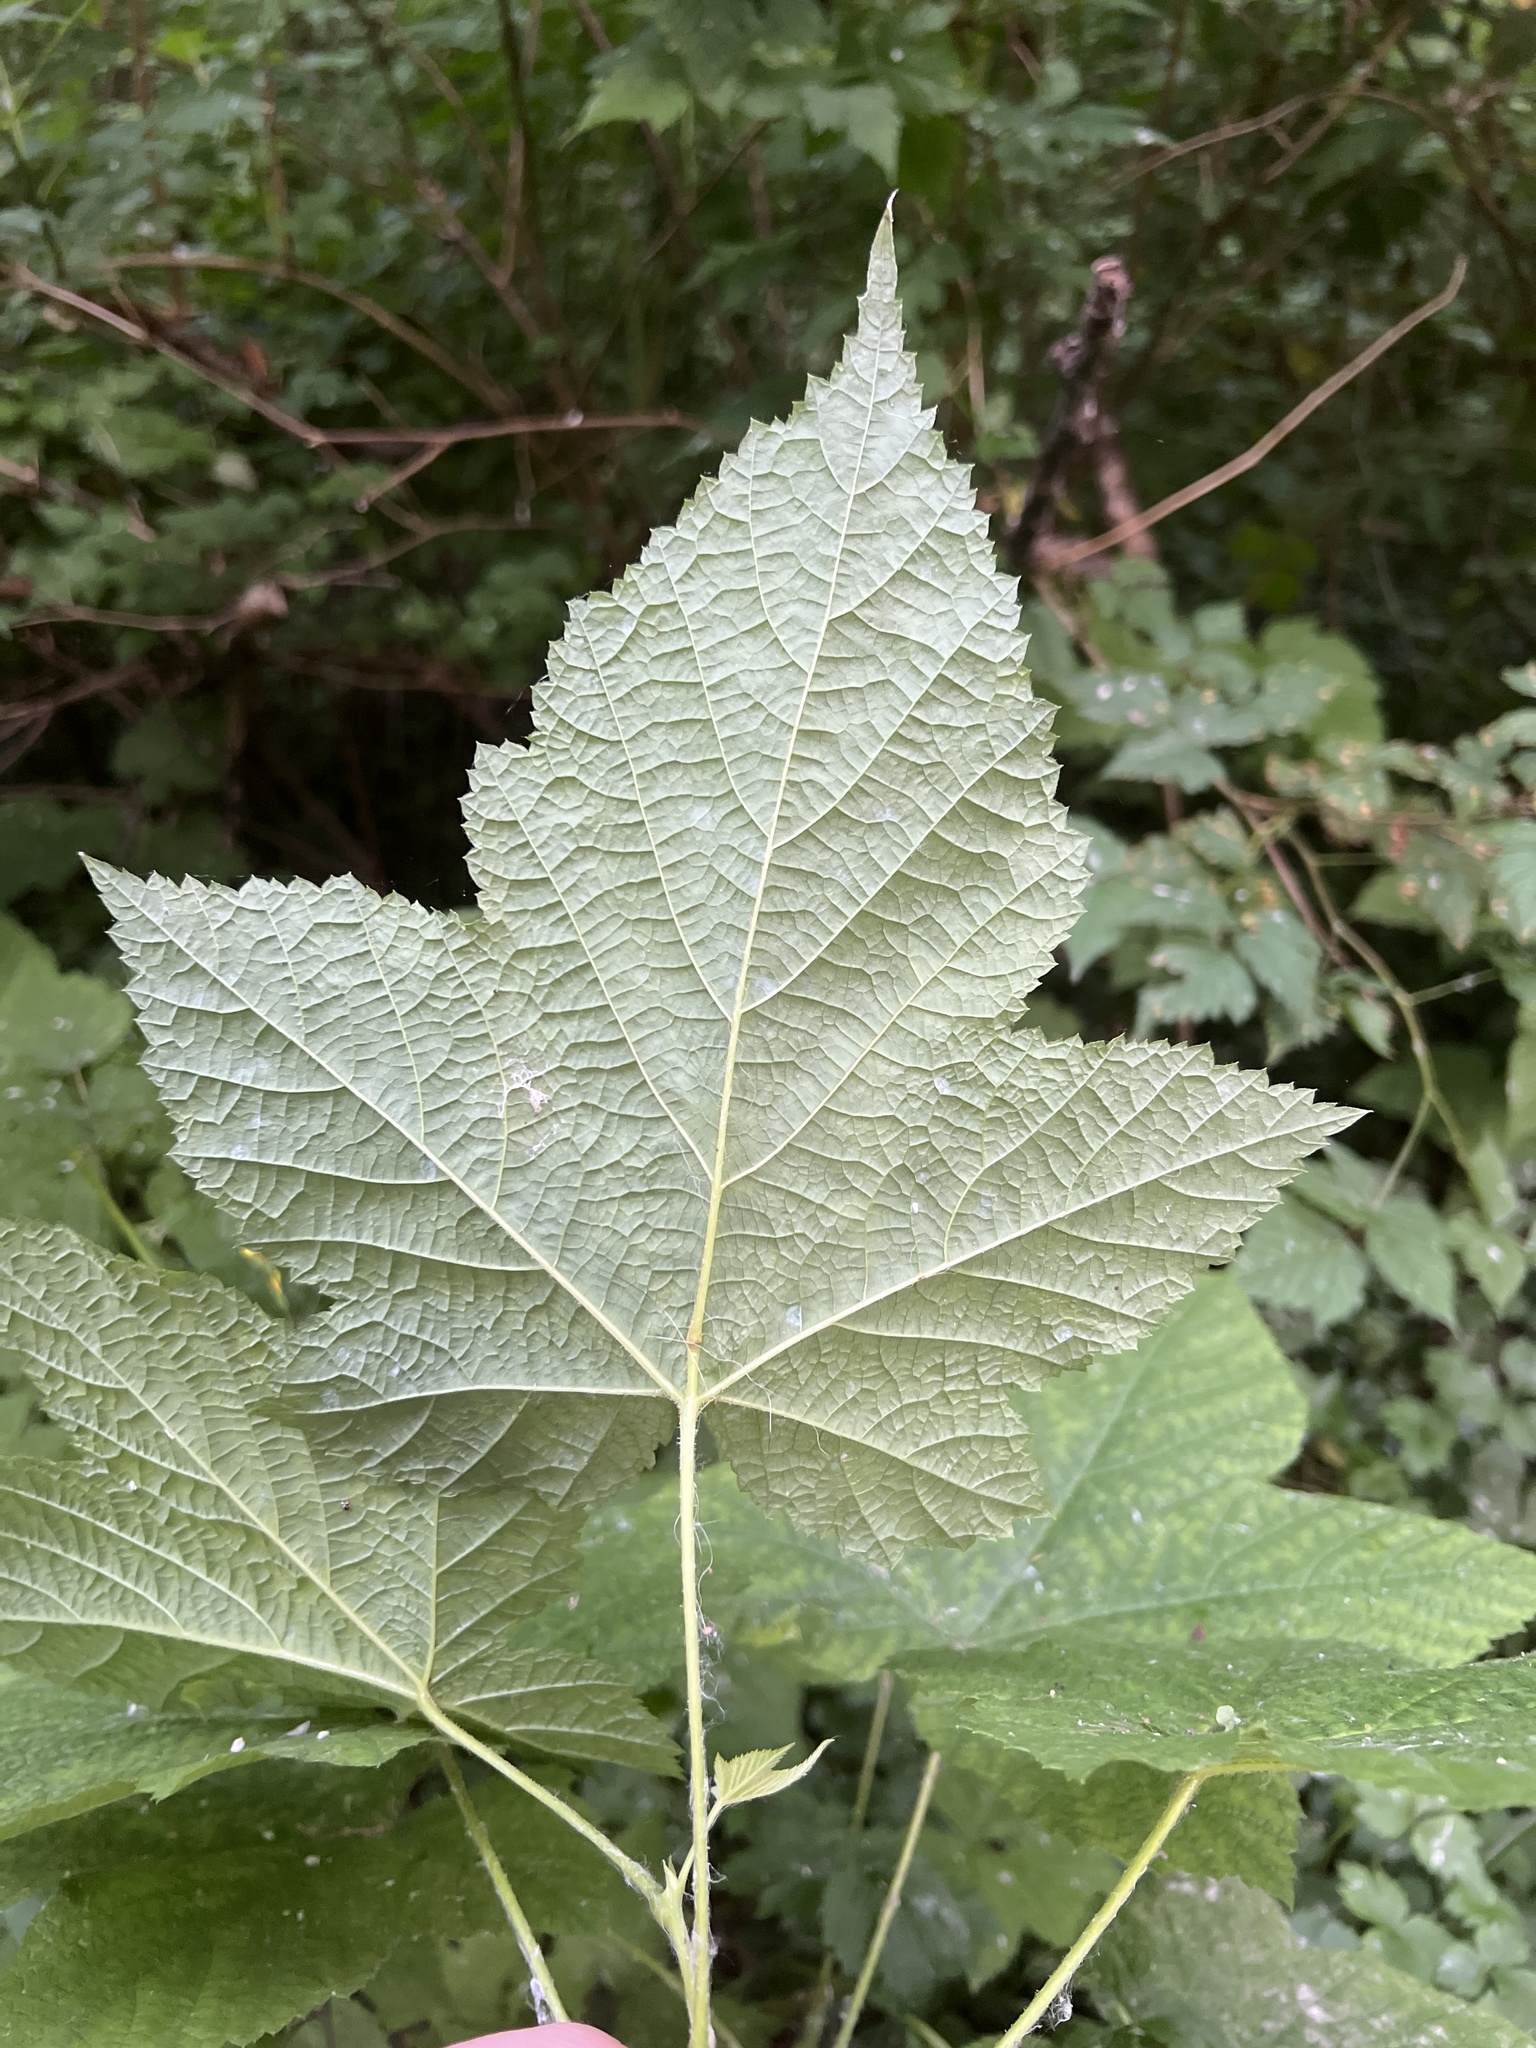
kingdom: Plantae
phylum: Tracheophyta
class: Magnoliopsida
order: Rosales
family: Rosaceae
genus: Rubus
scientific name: Rubus parviflorus
